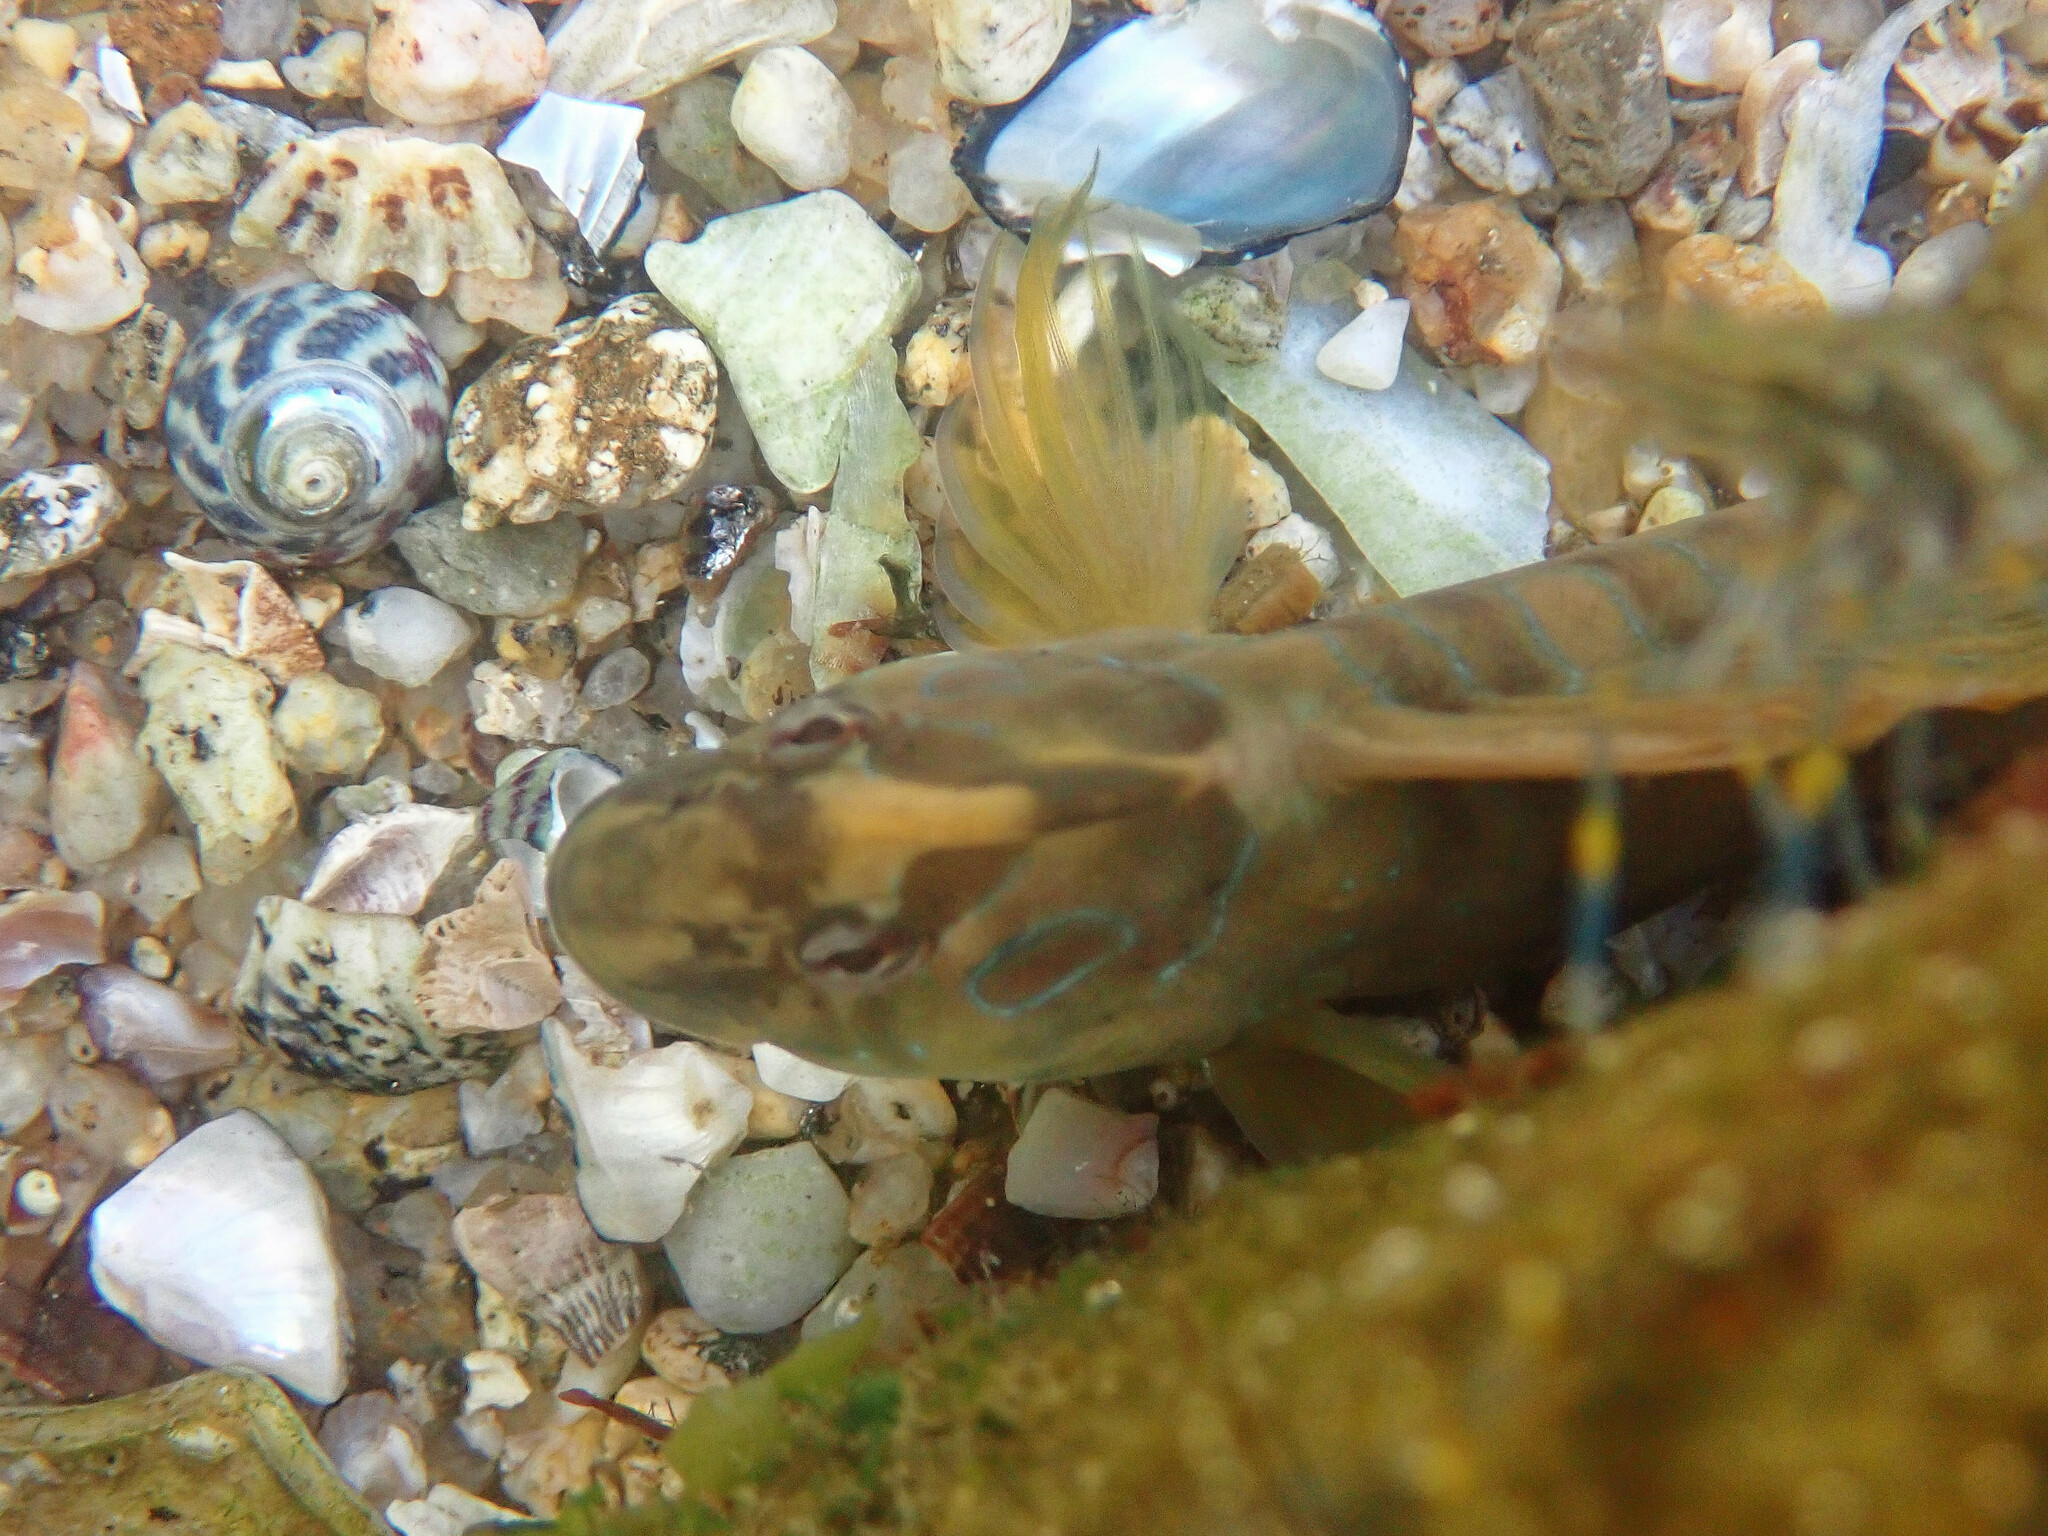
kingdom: Animalia
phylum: Chordata
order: Perciformes
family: Blenniidae
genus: Salaria
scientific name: Salaria pavo
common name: Peacock blenny
